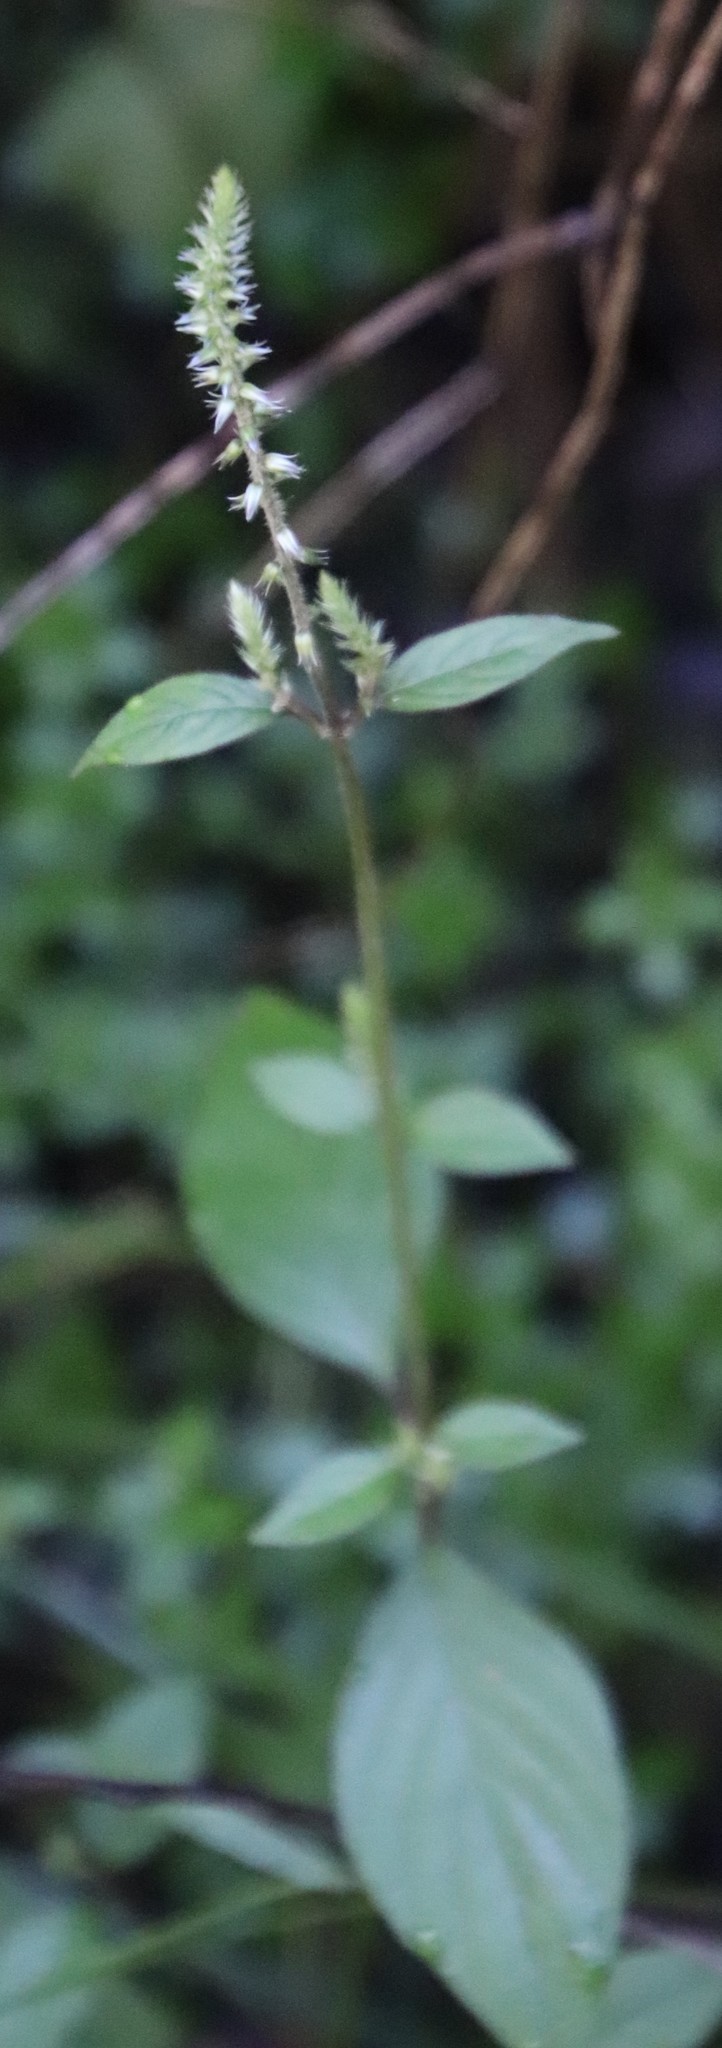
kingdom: Plantae
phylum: Tracheophyta
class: Magnoliopsida
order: Caryophyllales
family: Amaranthaceae
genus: Achyranthes
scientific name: Achyranthes aspera
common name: Devil's horsewhip
